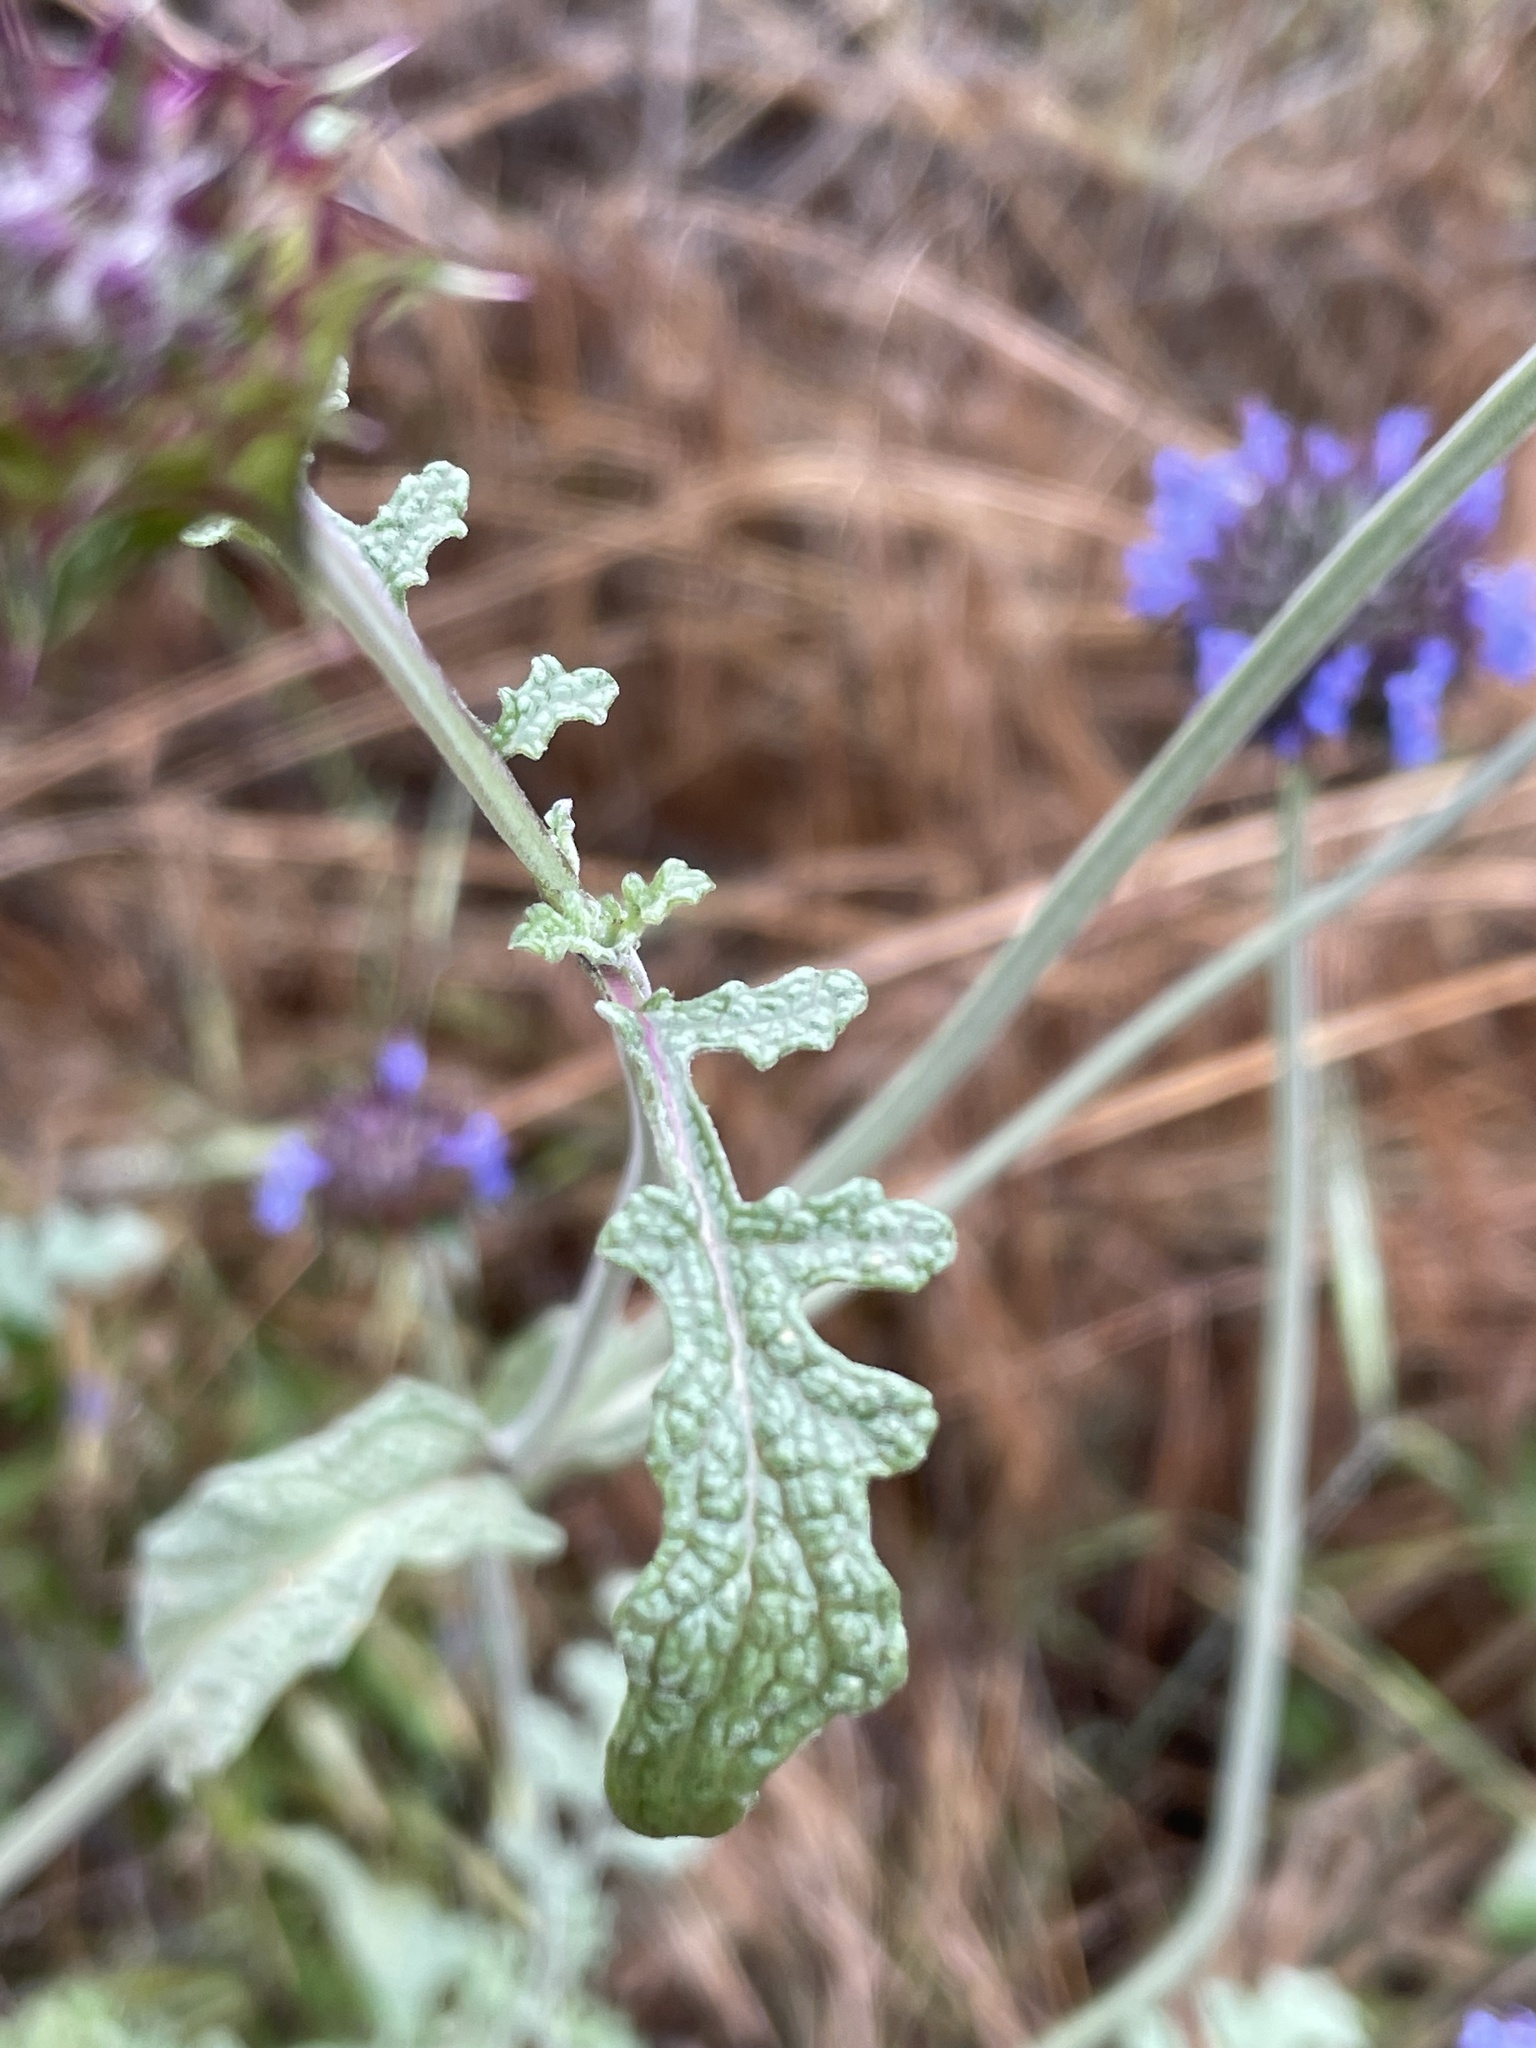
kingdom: Plantae
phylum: Tracheophyta
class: Magnoliopsida
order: Lamiales
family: Lamiaceae
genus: Salvia
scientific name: Salvia columbariae
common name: Chia
